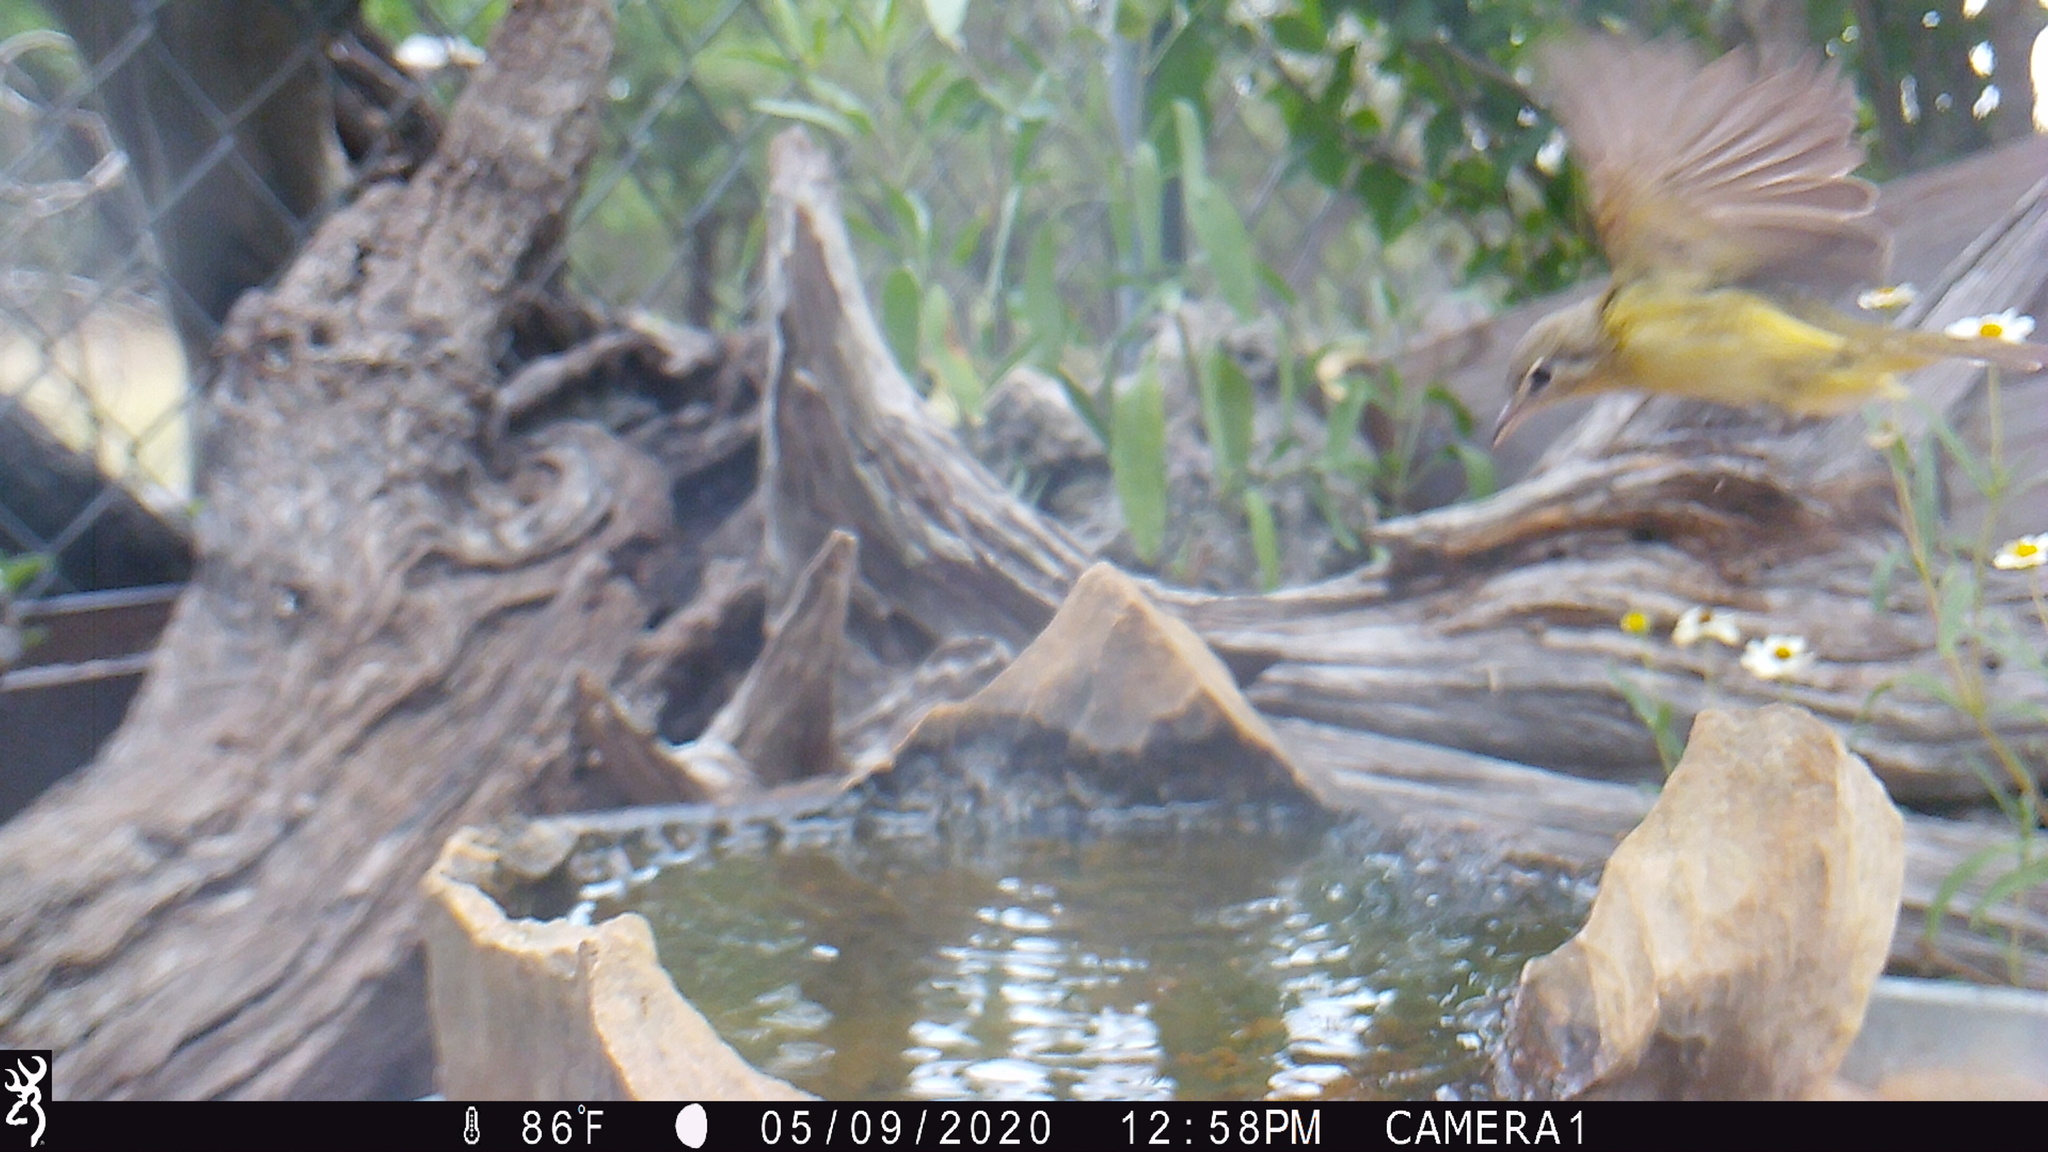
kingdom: Animalia
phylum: Chordata
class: Aves
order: Passeriformes
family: Vireonidae
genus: Vireo
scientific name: Vireo bellii
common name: Bell's vireo
